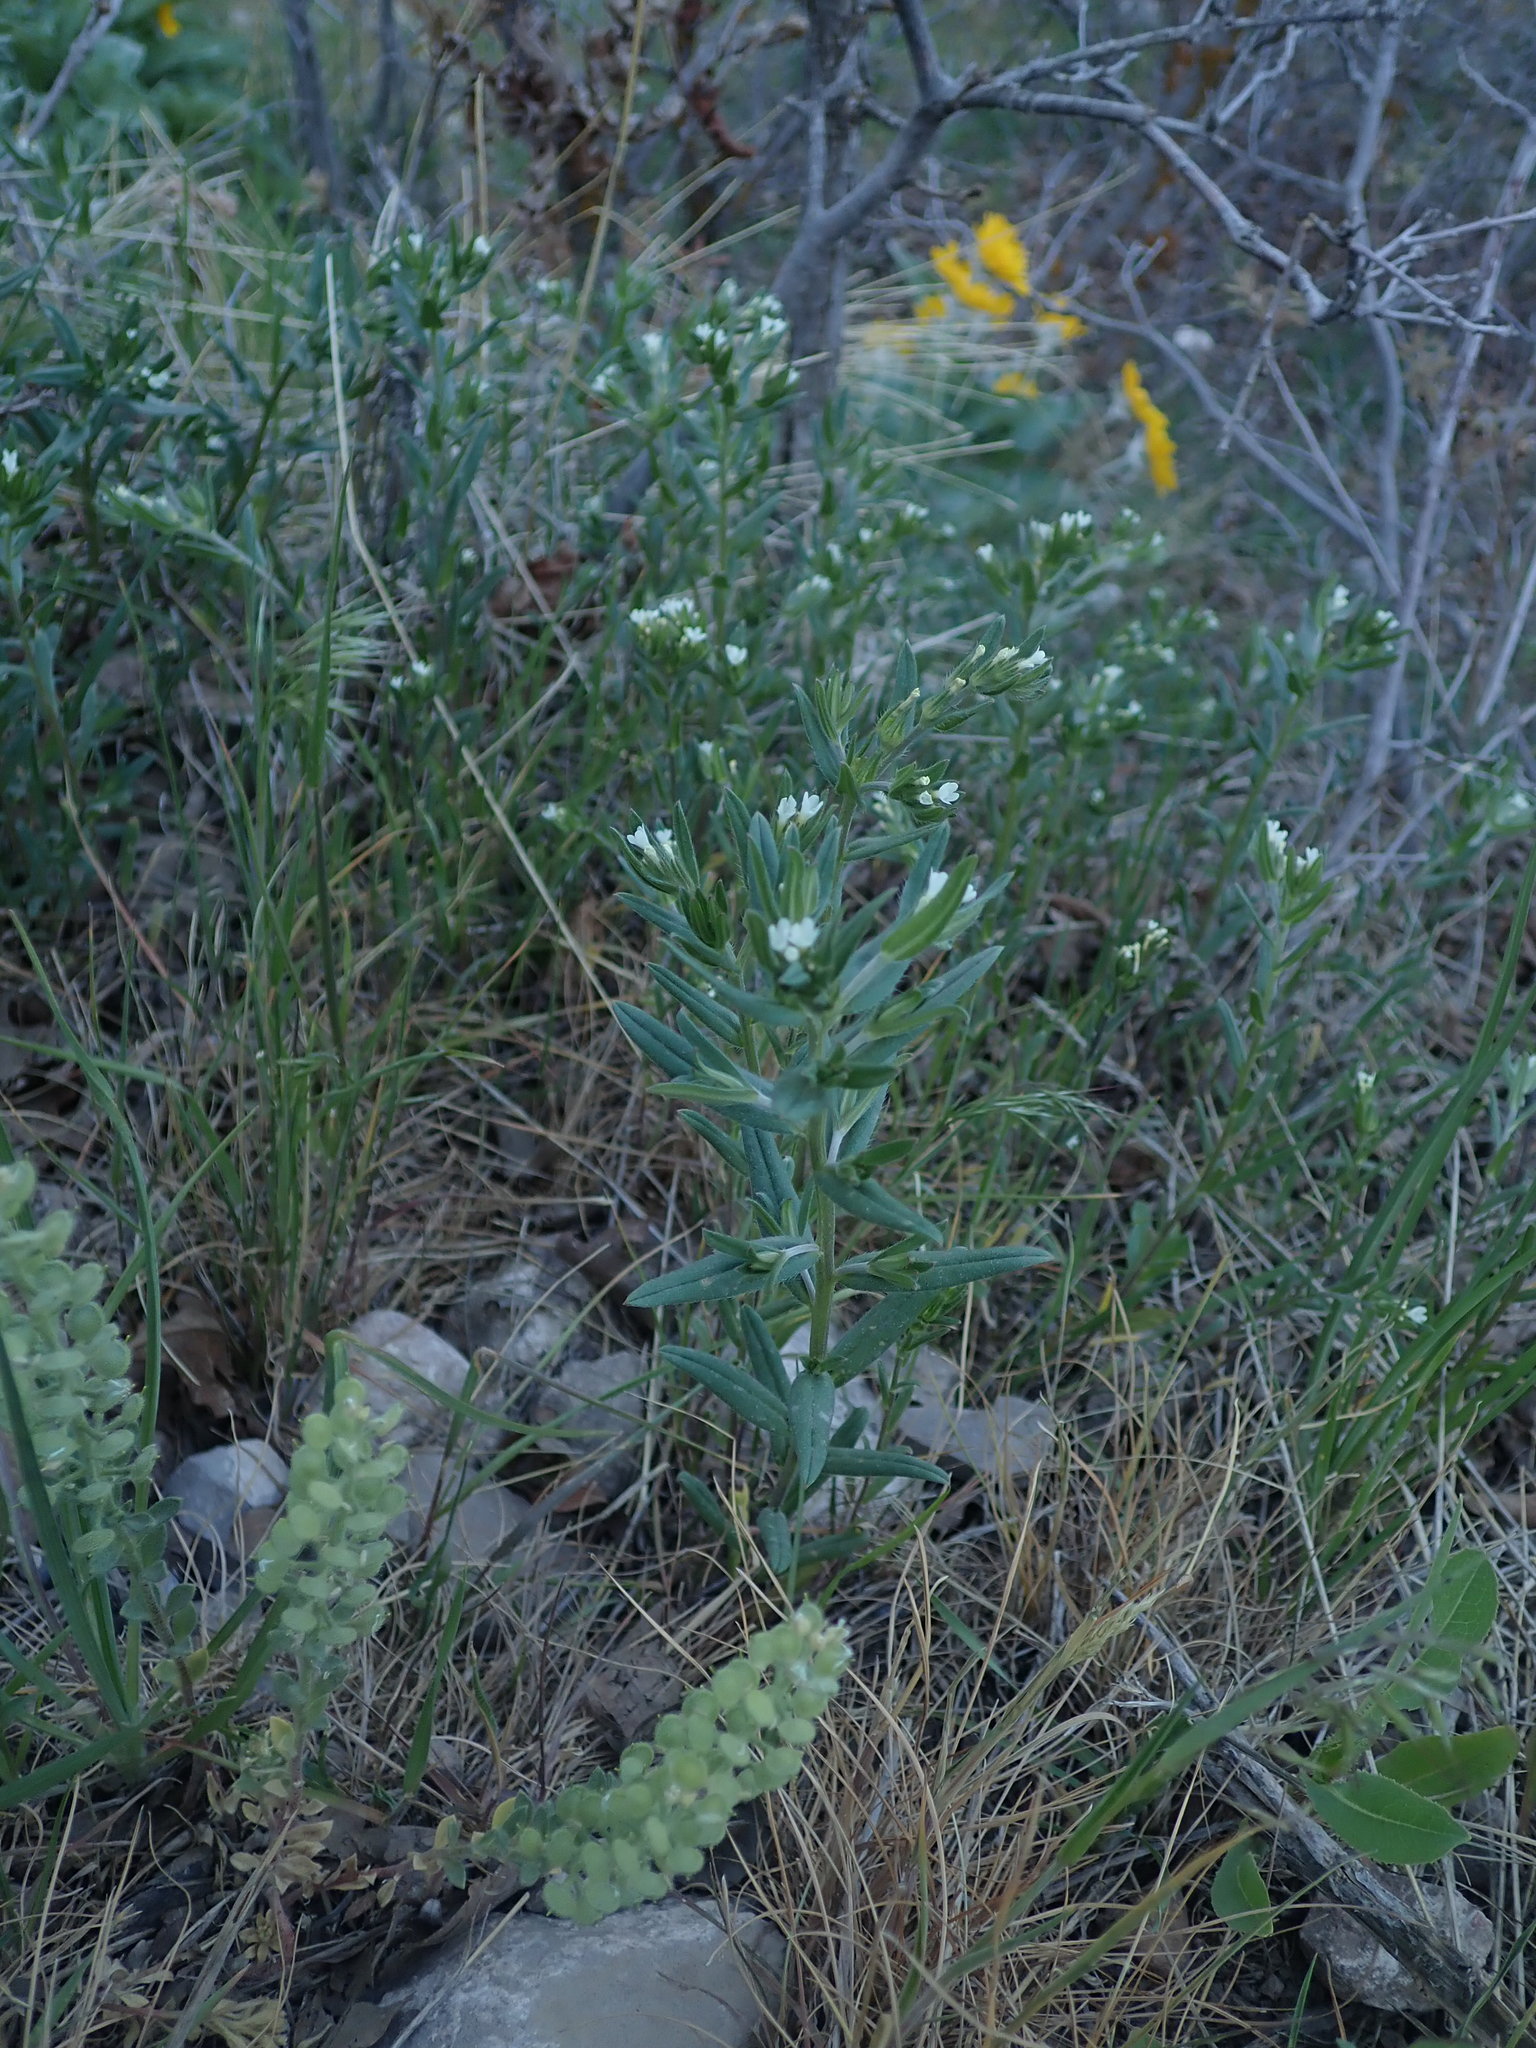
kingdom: Plantae
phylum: Tracheophyta
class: Magnoliopsida
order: Boraginales
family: Boraginaceae
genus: Buglossoides
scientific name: Buglossoides arvensis
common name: Corn gromwell
